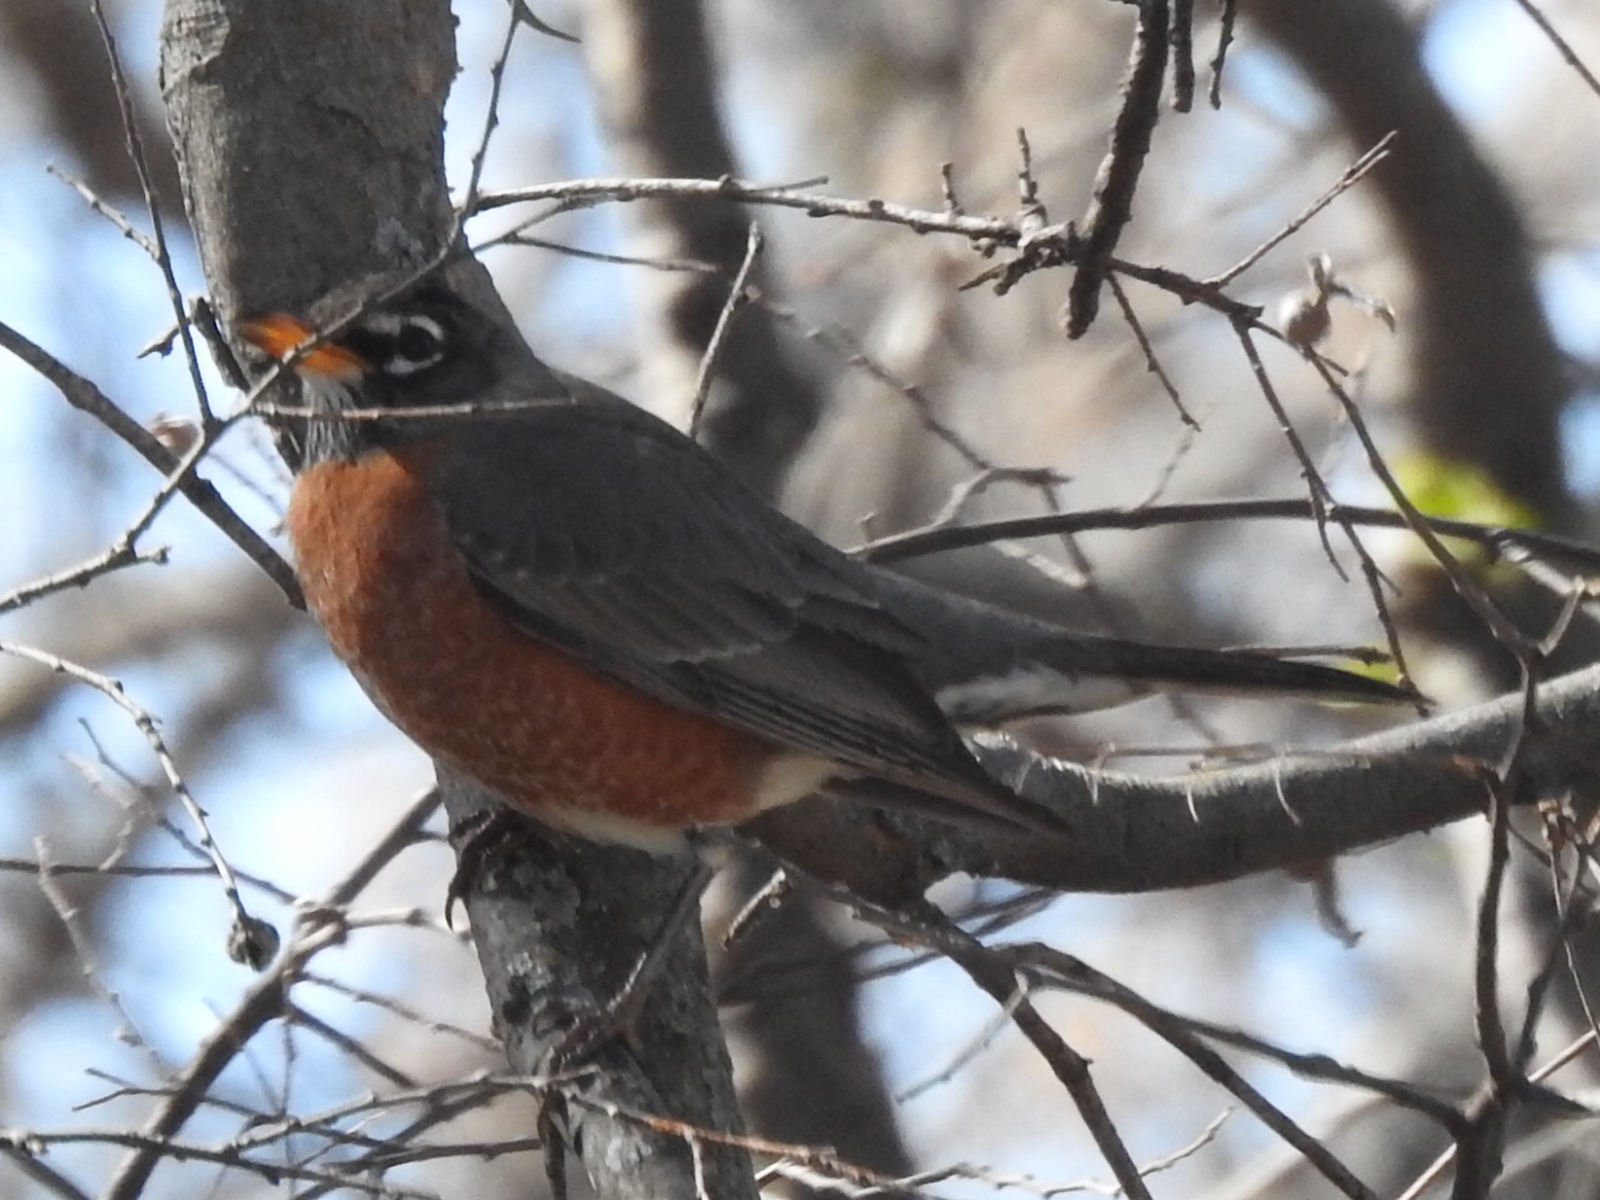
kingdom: Animalia
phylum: Chordata
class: Aves
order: Passeriformes
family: Turdidae
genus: Turdus
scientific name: Turdus migratorius
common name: American robin
